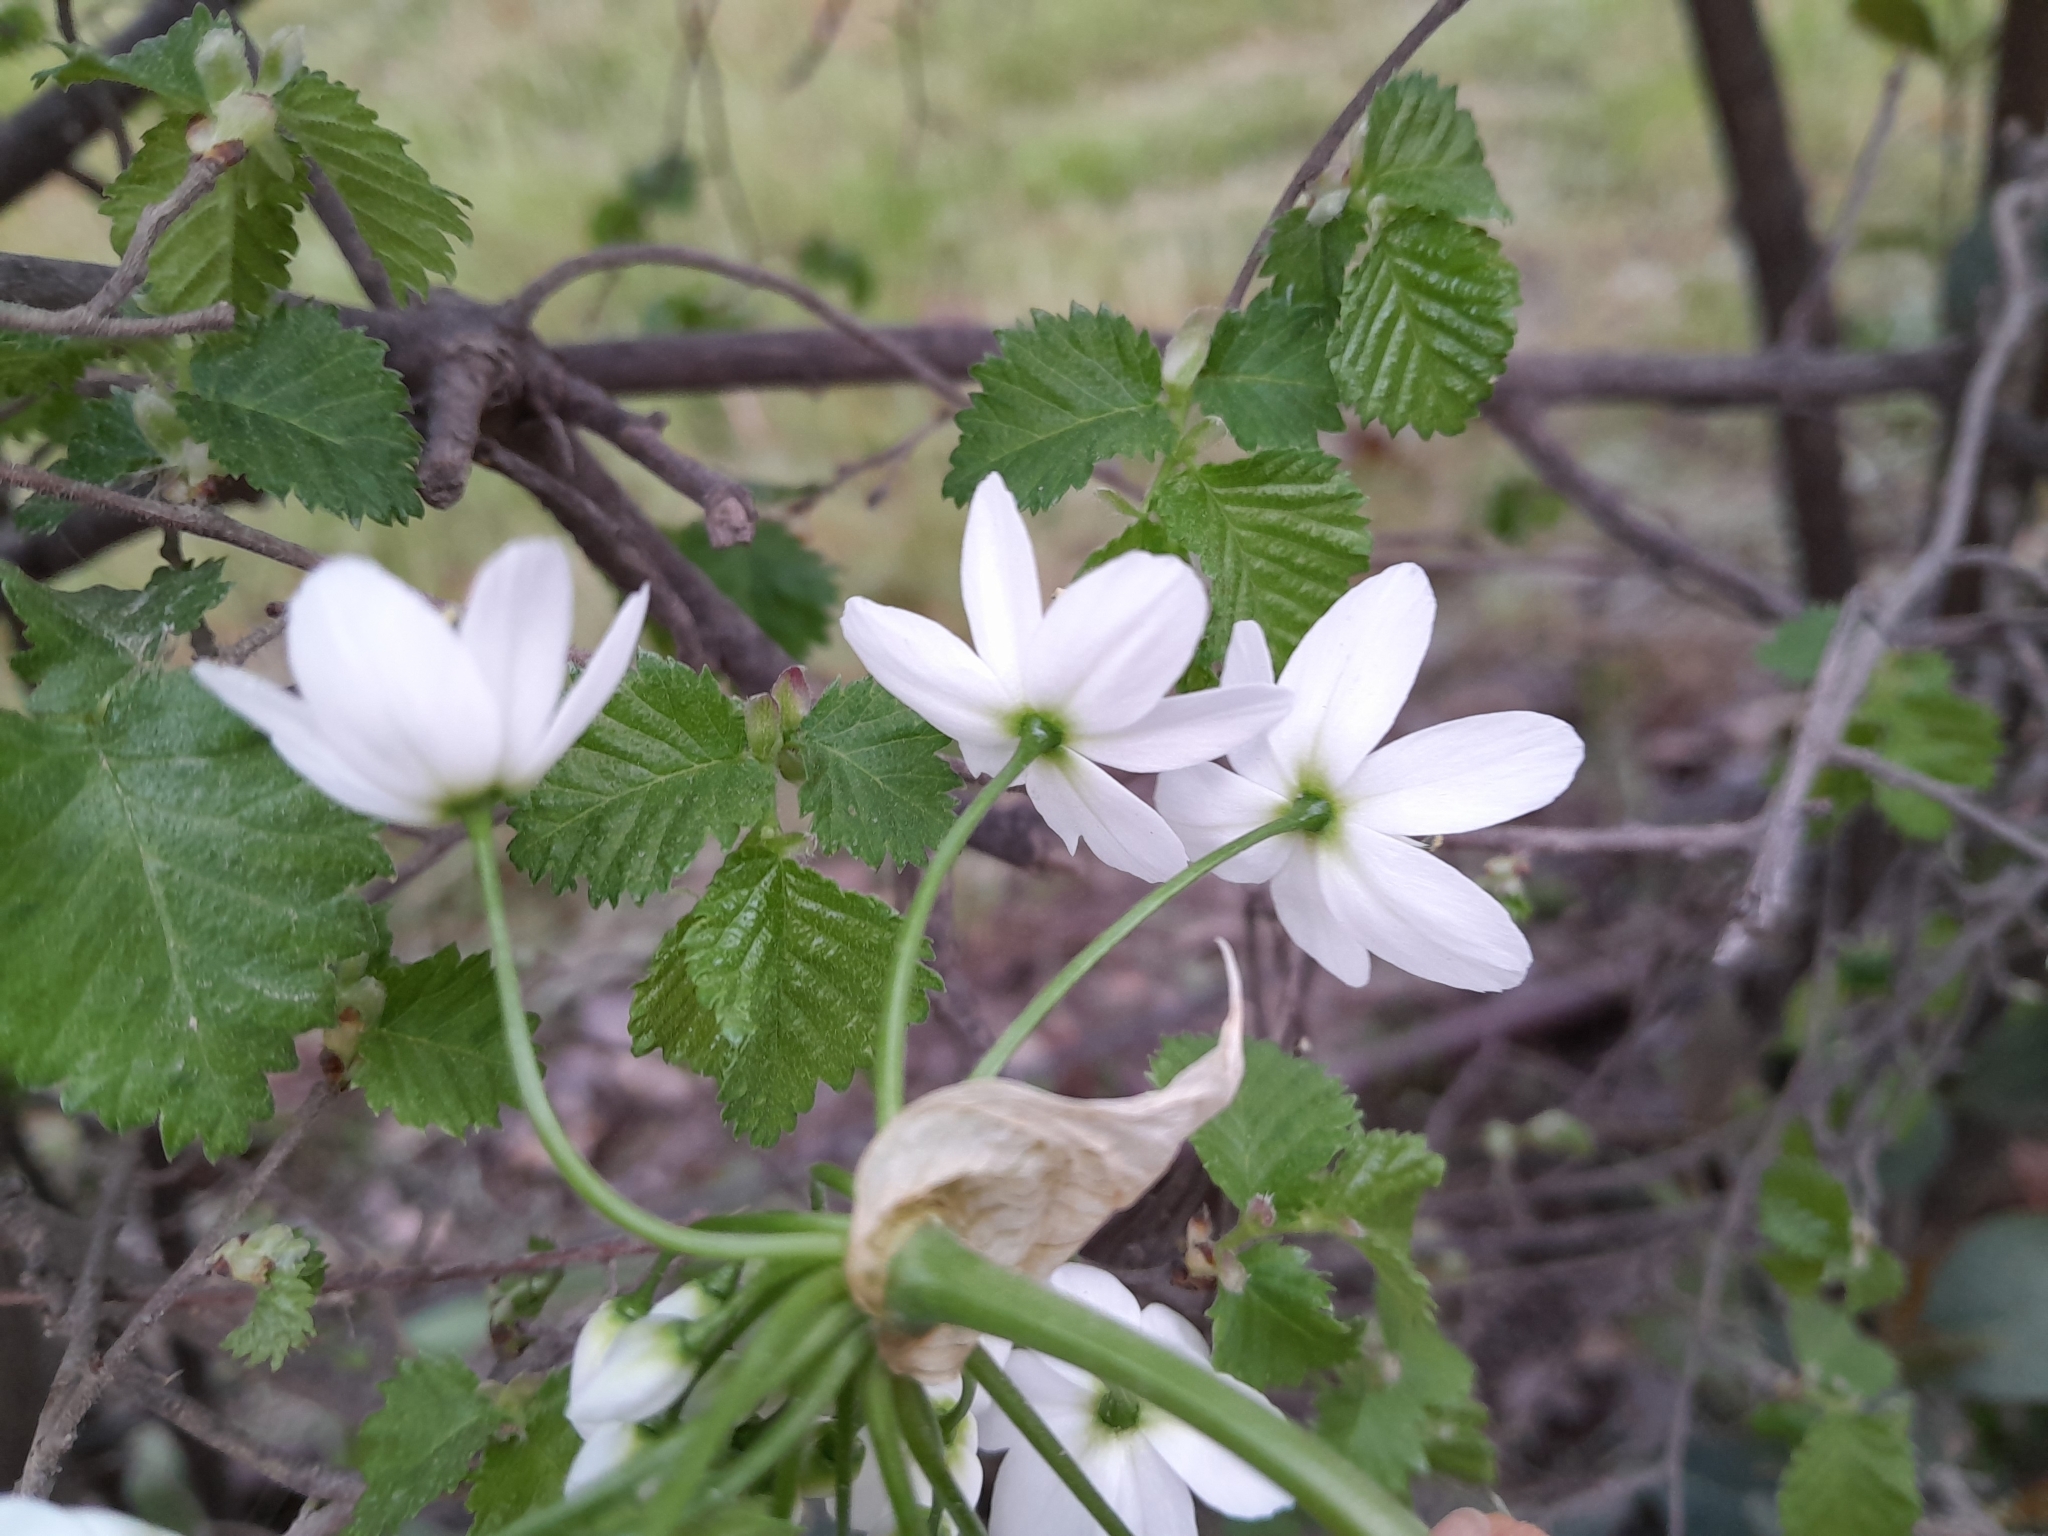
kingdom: Plantae
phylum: Tracheophyta
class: Liliopsida
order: Asparagales
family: Amaryllidaceae
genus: Allium
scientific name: Allium neapolitanum
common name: Neapolitan garlic
